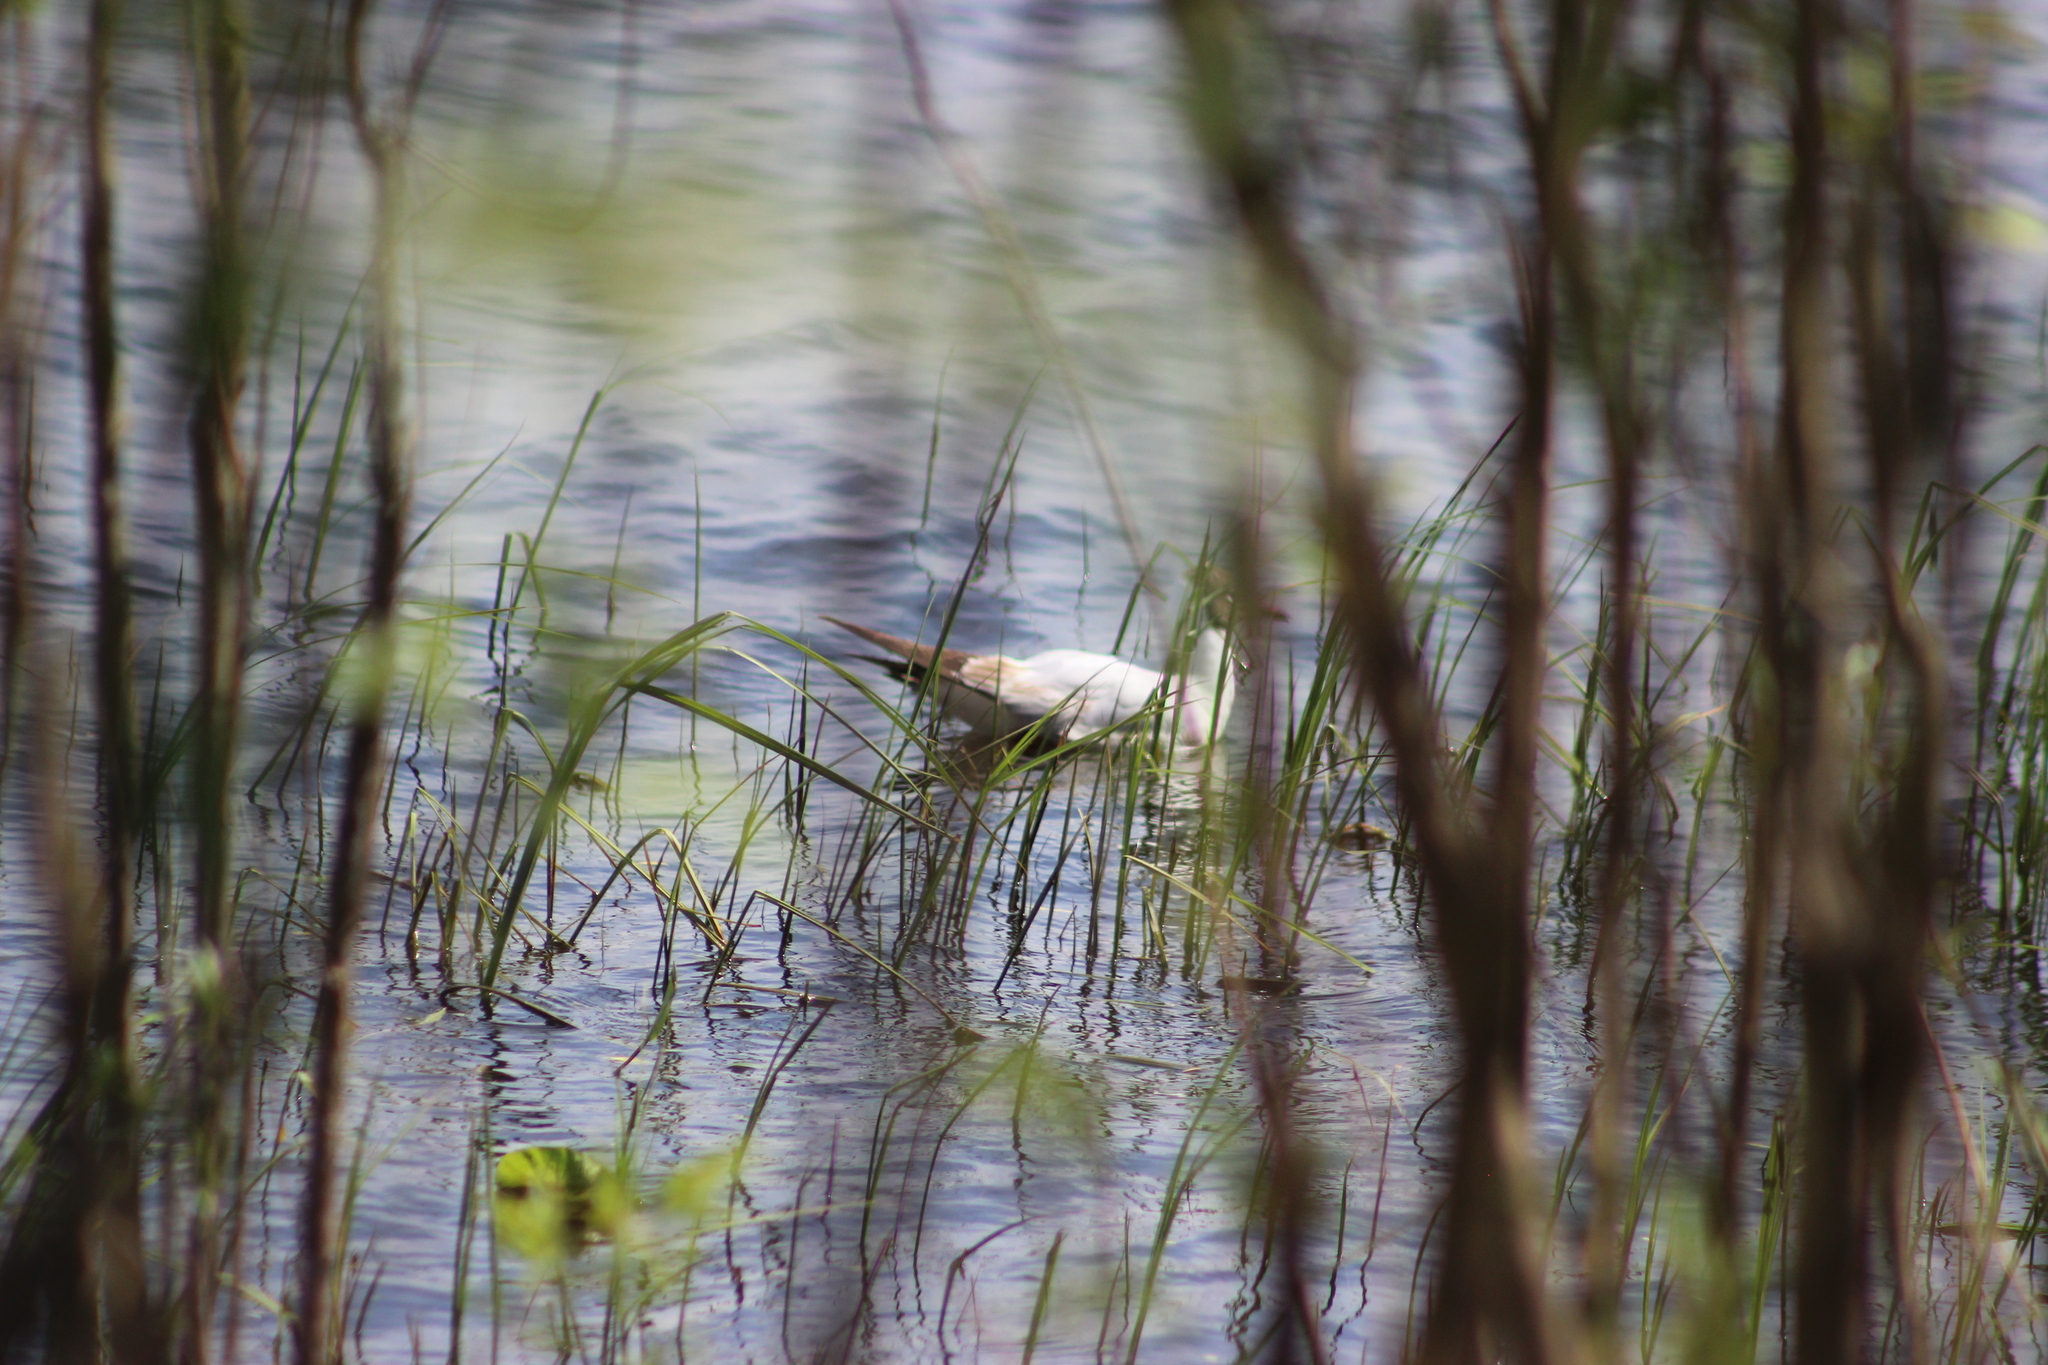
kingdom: Animalia
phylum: Chordata
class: Aves
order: Charadriiformes
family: Laridae
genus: Chroicocephalus
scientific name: Chroicocephalus ridibundus
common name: Black-headed gull
